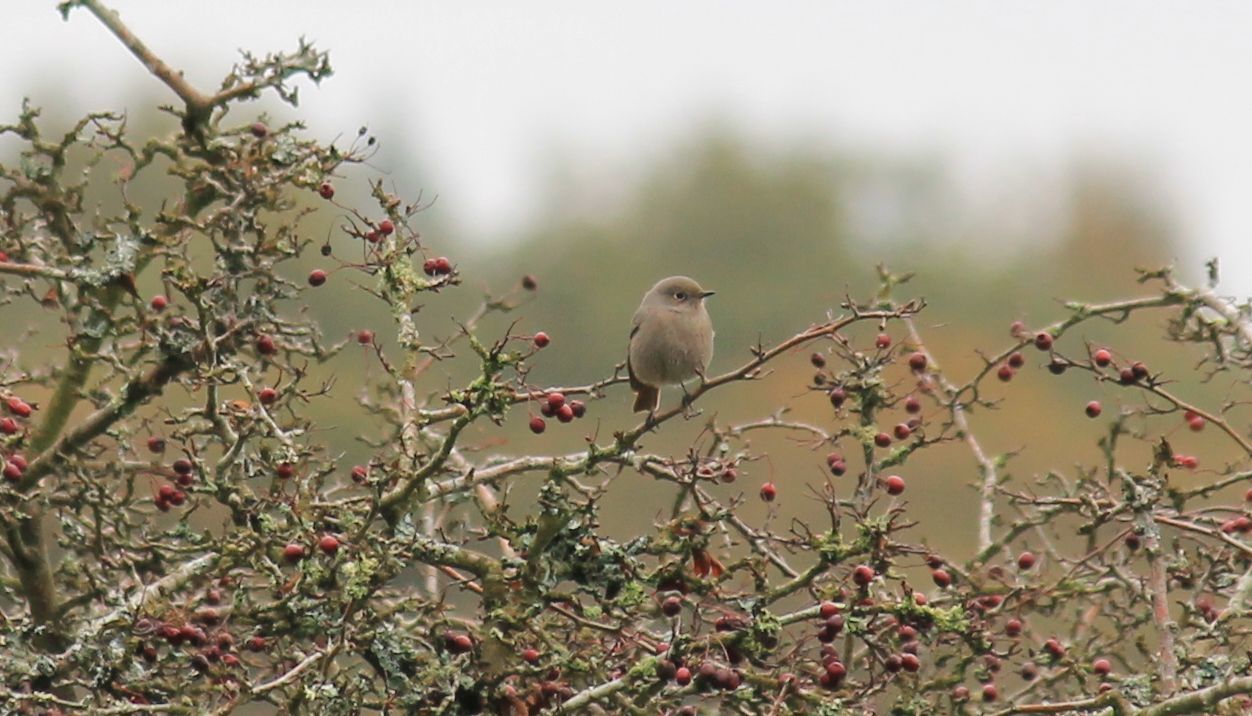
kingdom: Animalia
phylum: Chordata
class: Aves
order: Passeriformes
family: Muscicapidae
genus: Phoenicurus
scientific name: Phoenicurus ochruros
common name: Black redstart
